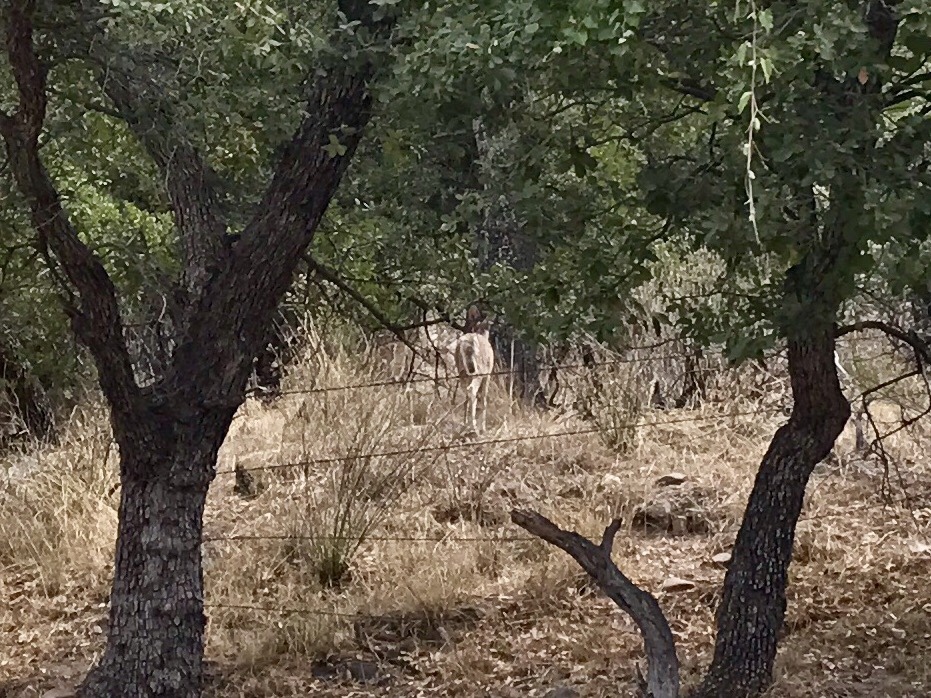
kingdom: Animalia
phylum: Chordata
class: Mammalia
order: Artiodactyla
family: Cervidae
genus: Odocoileus
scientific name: Odocoileus virginianus
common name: White-tailed deer
